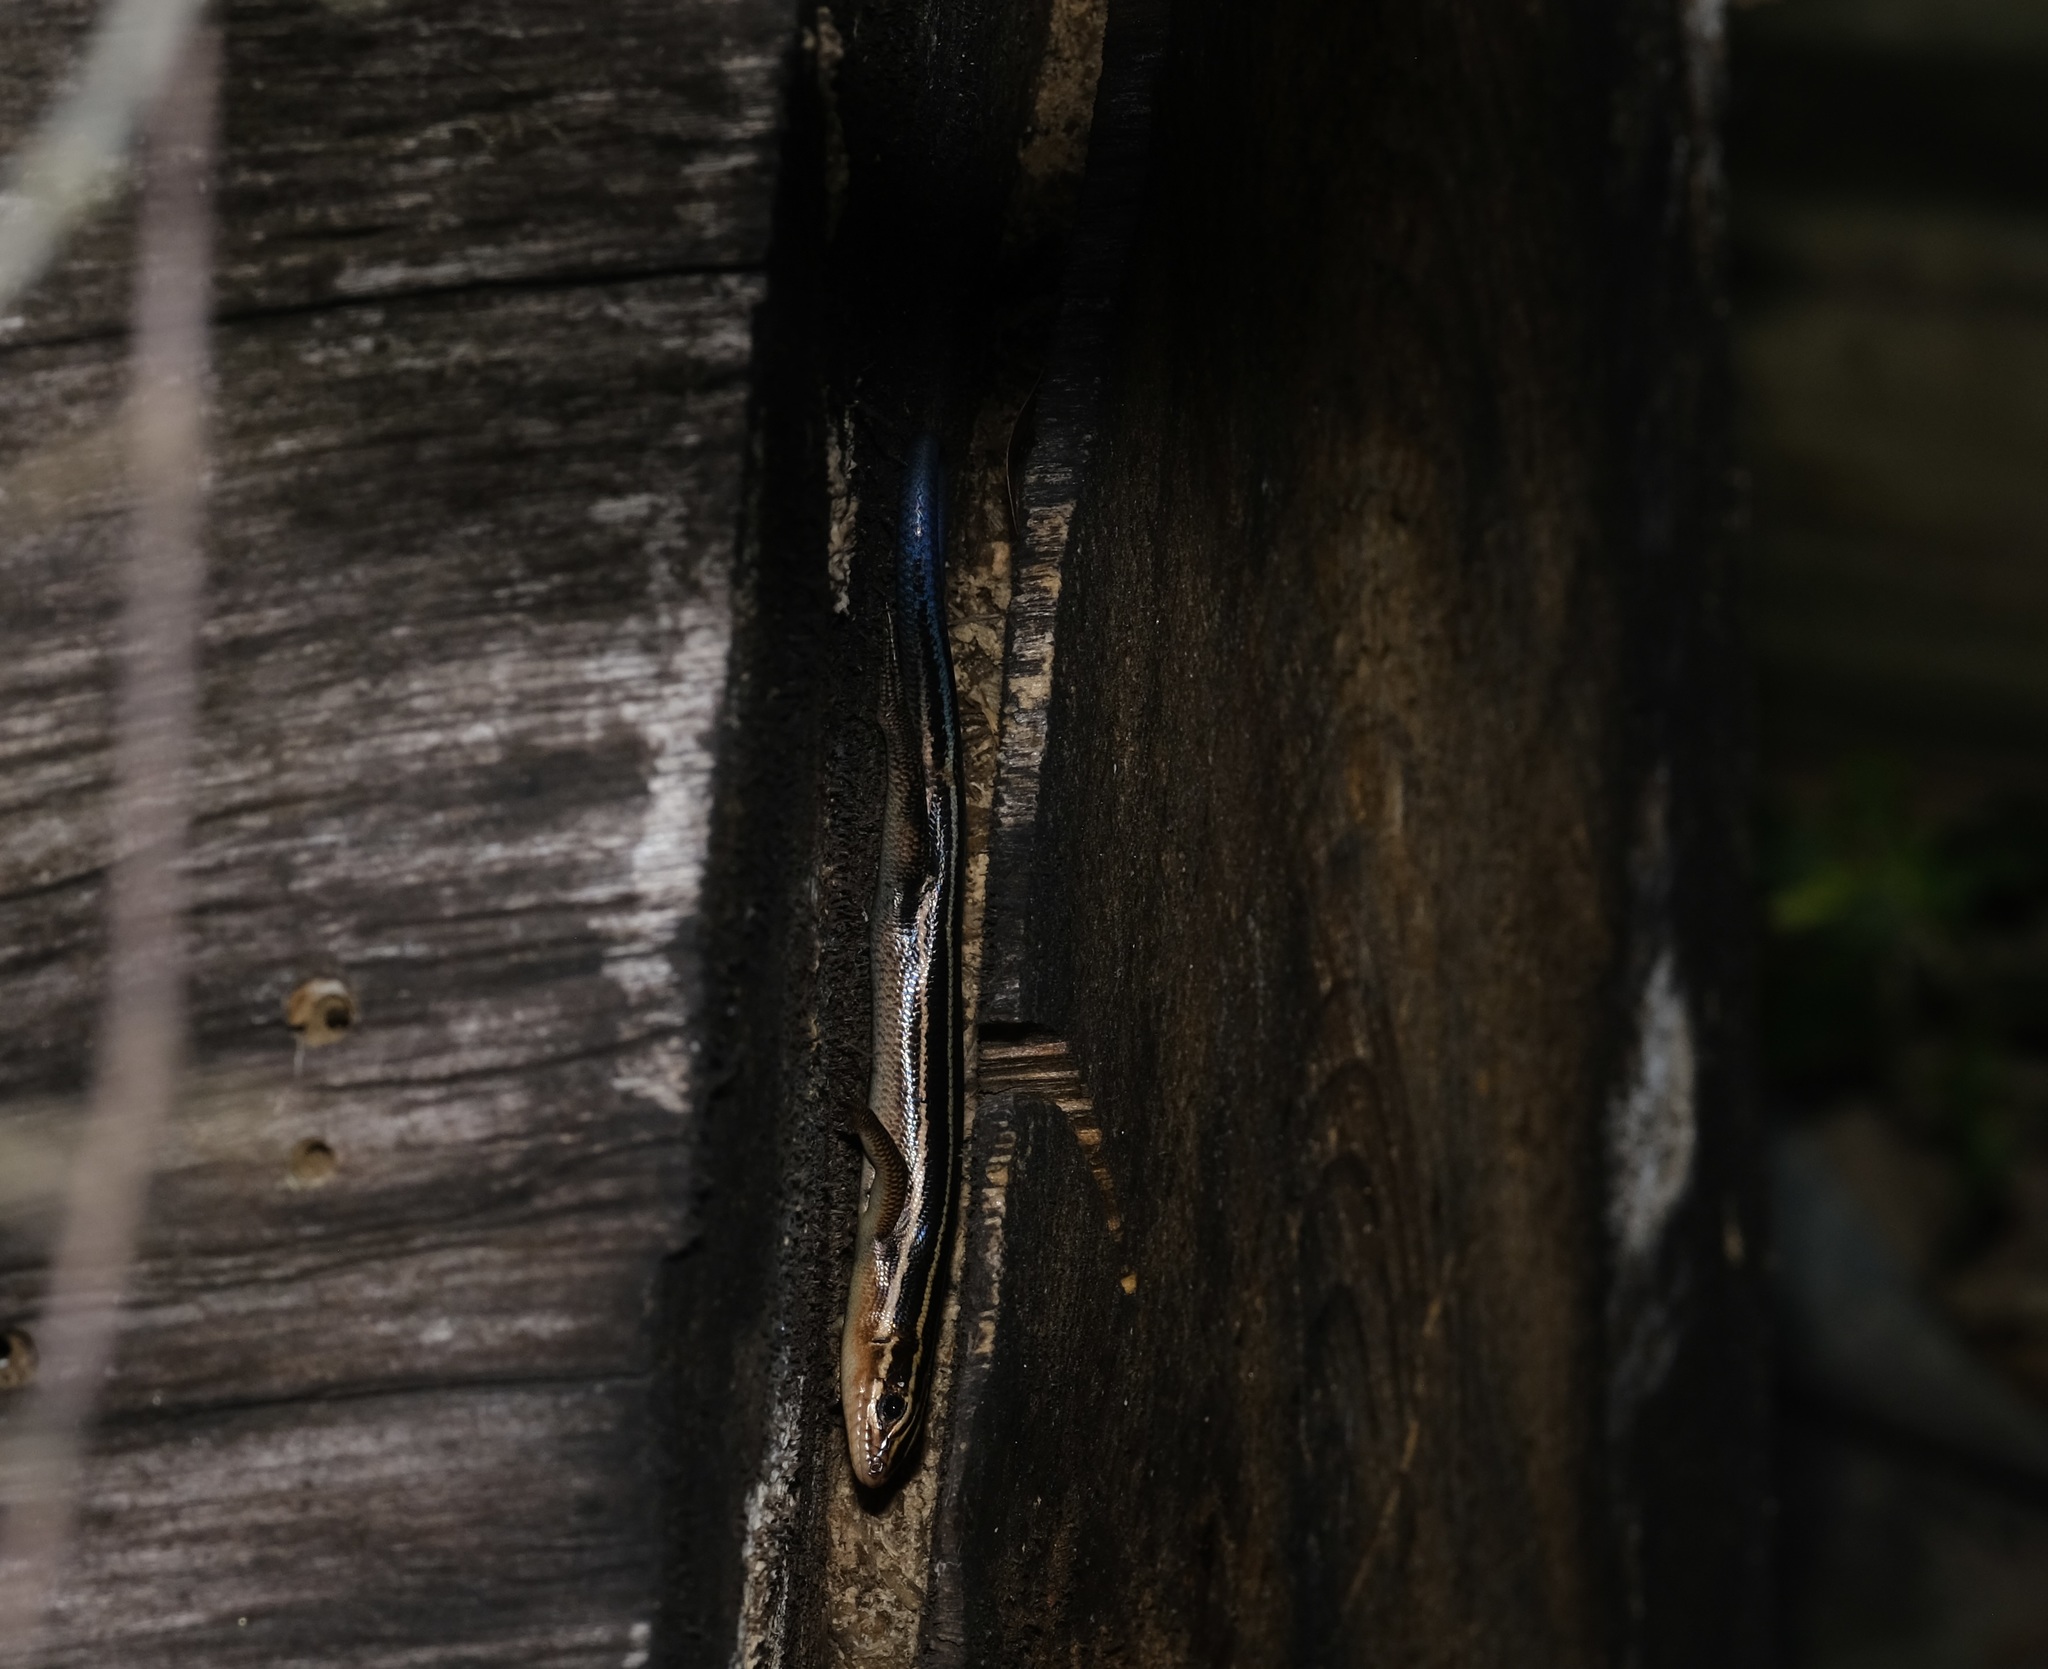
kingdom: Animalia
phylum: Chordata
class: Squamata
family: Scincidae
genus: Plestiodon
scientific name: Plestiodon laticeps
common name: Broadhead skink
